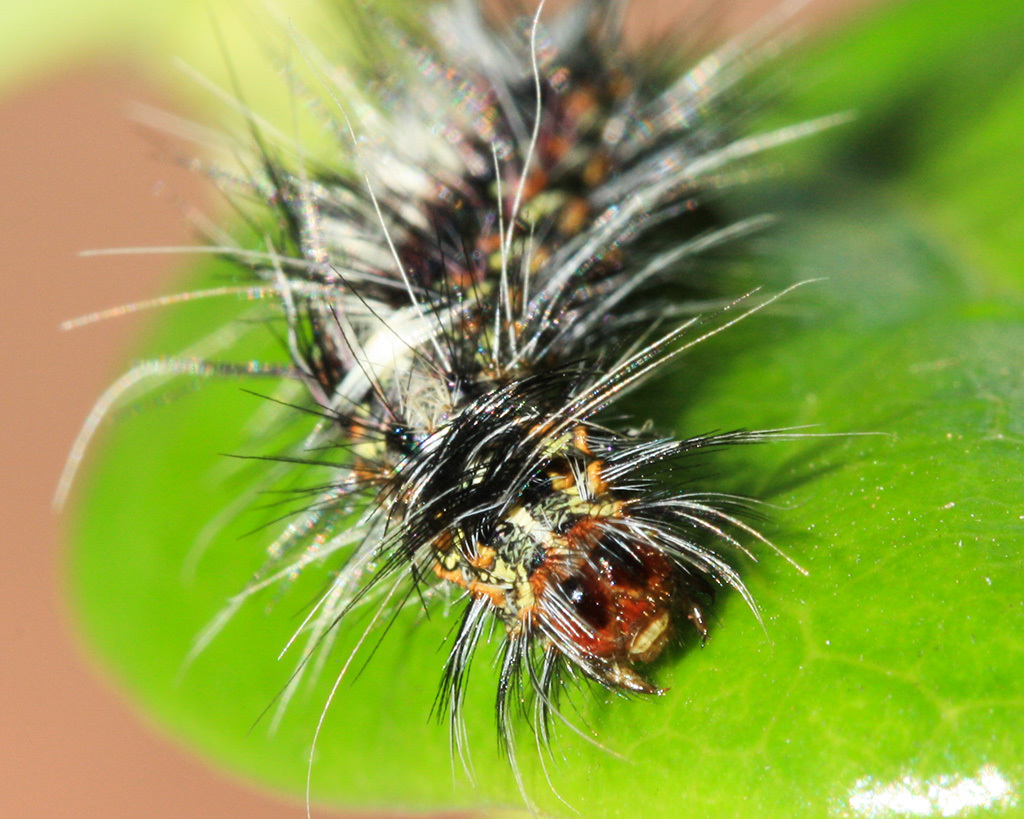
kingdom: Animalia
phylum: Arthropoda
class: Insecta
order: Lepidoptera
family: Erebidae
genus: Paralacydes
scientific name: Paralacydes vocula
